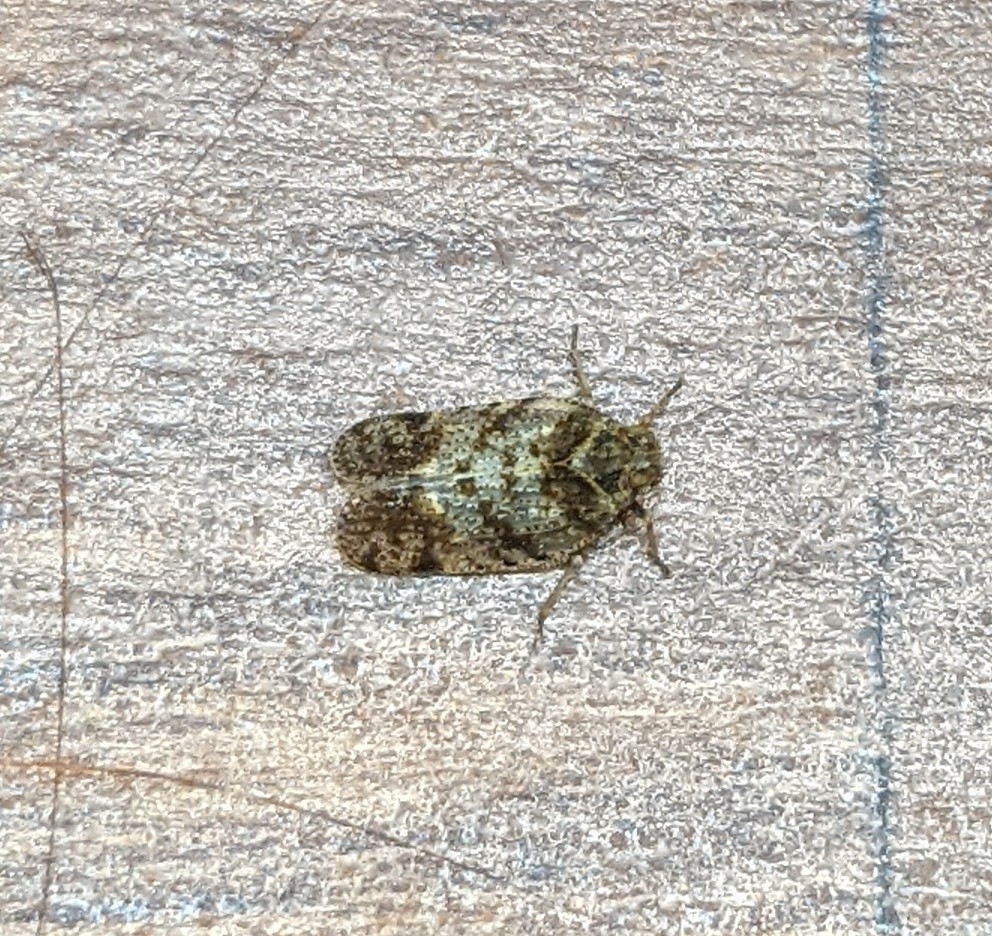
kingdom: Animalia
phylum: Arthropoda
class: Insecta
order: Hemiptera
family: Cixiidae
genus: Tachycixius
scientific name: Tachycixius pilosus
